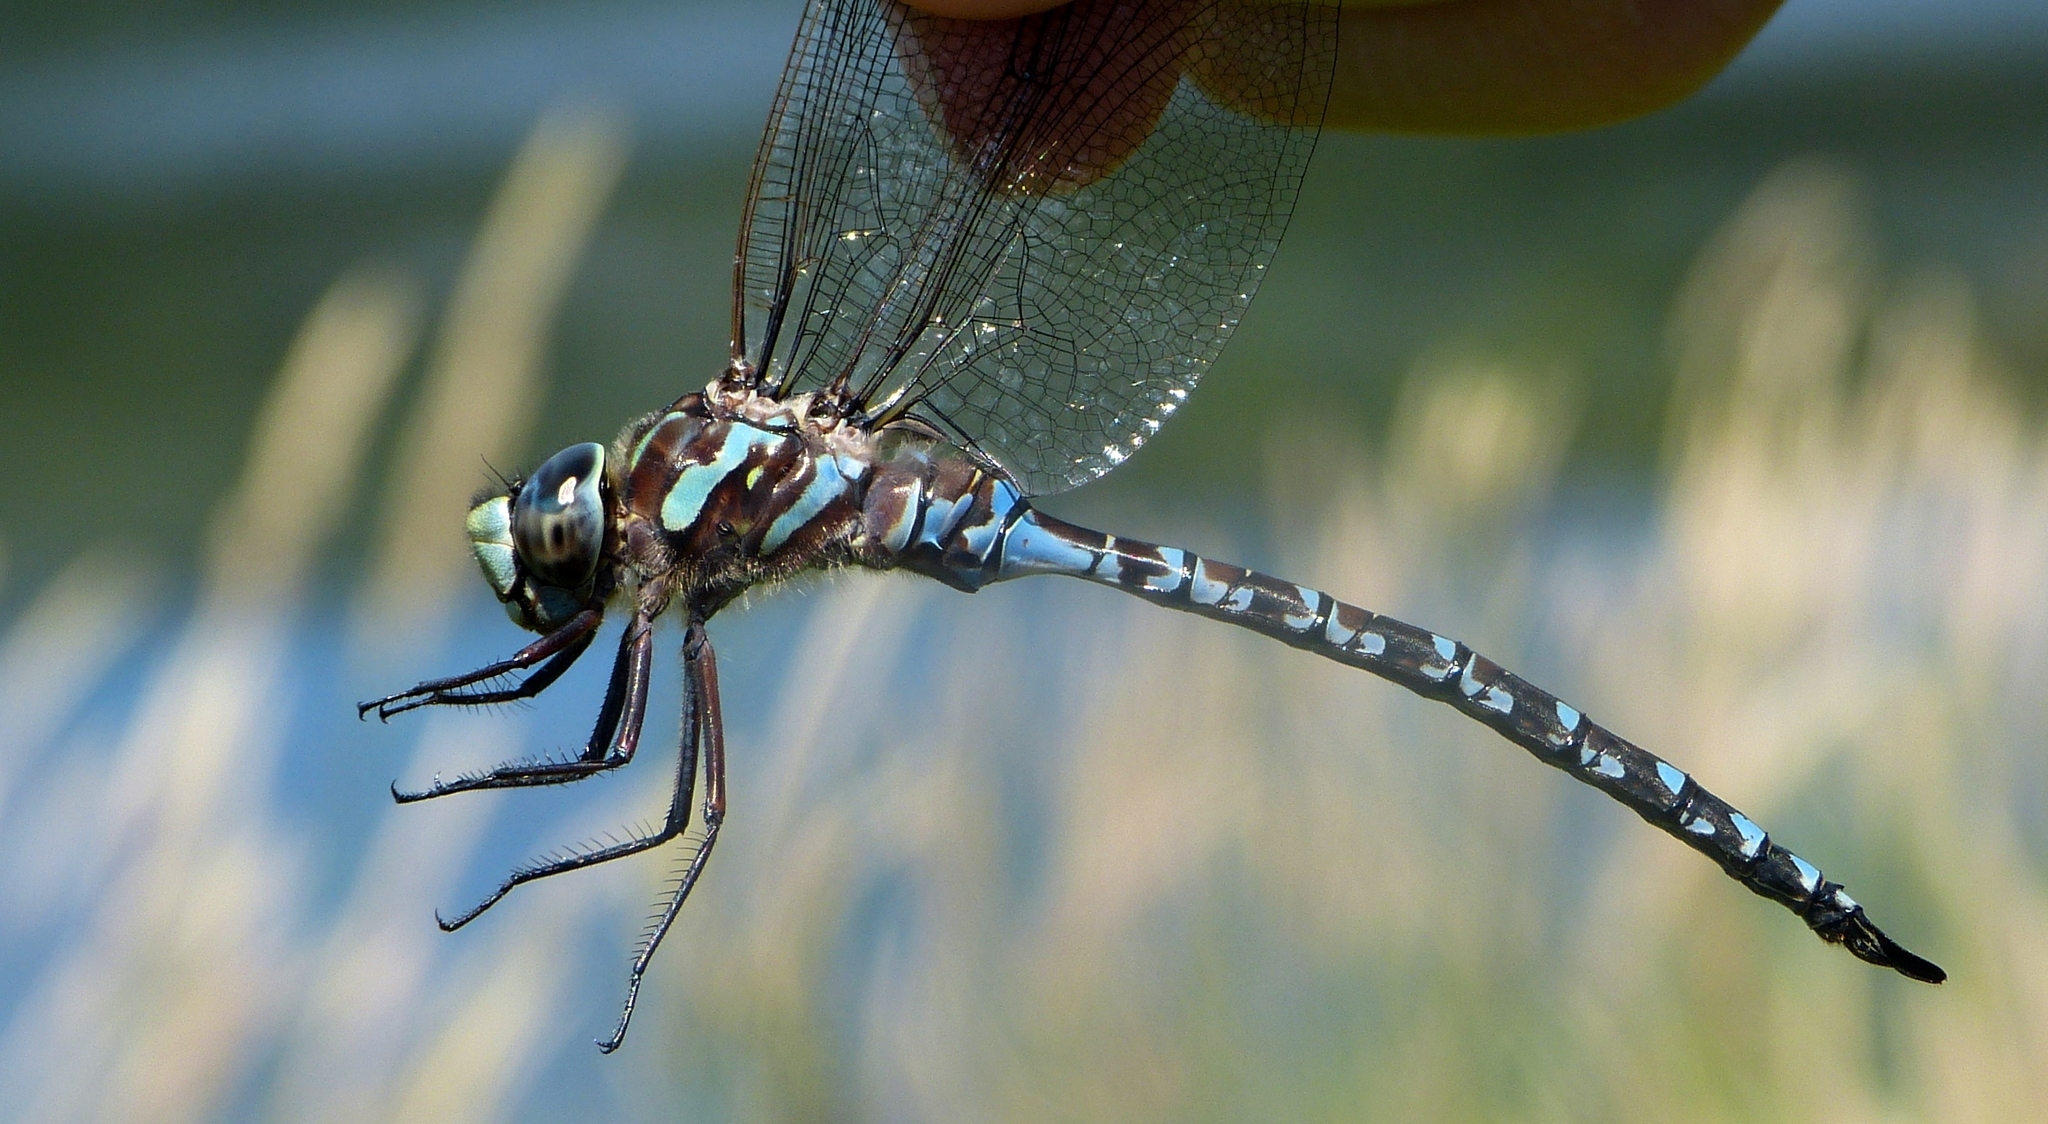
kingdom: Animalia
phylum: Arthropoda
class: Insecta
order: Odonata
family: Aeshnidae
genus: Aeshna
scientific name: Aeshna canadensis
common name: Canada darner
